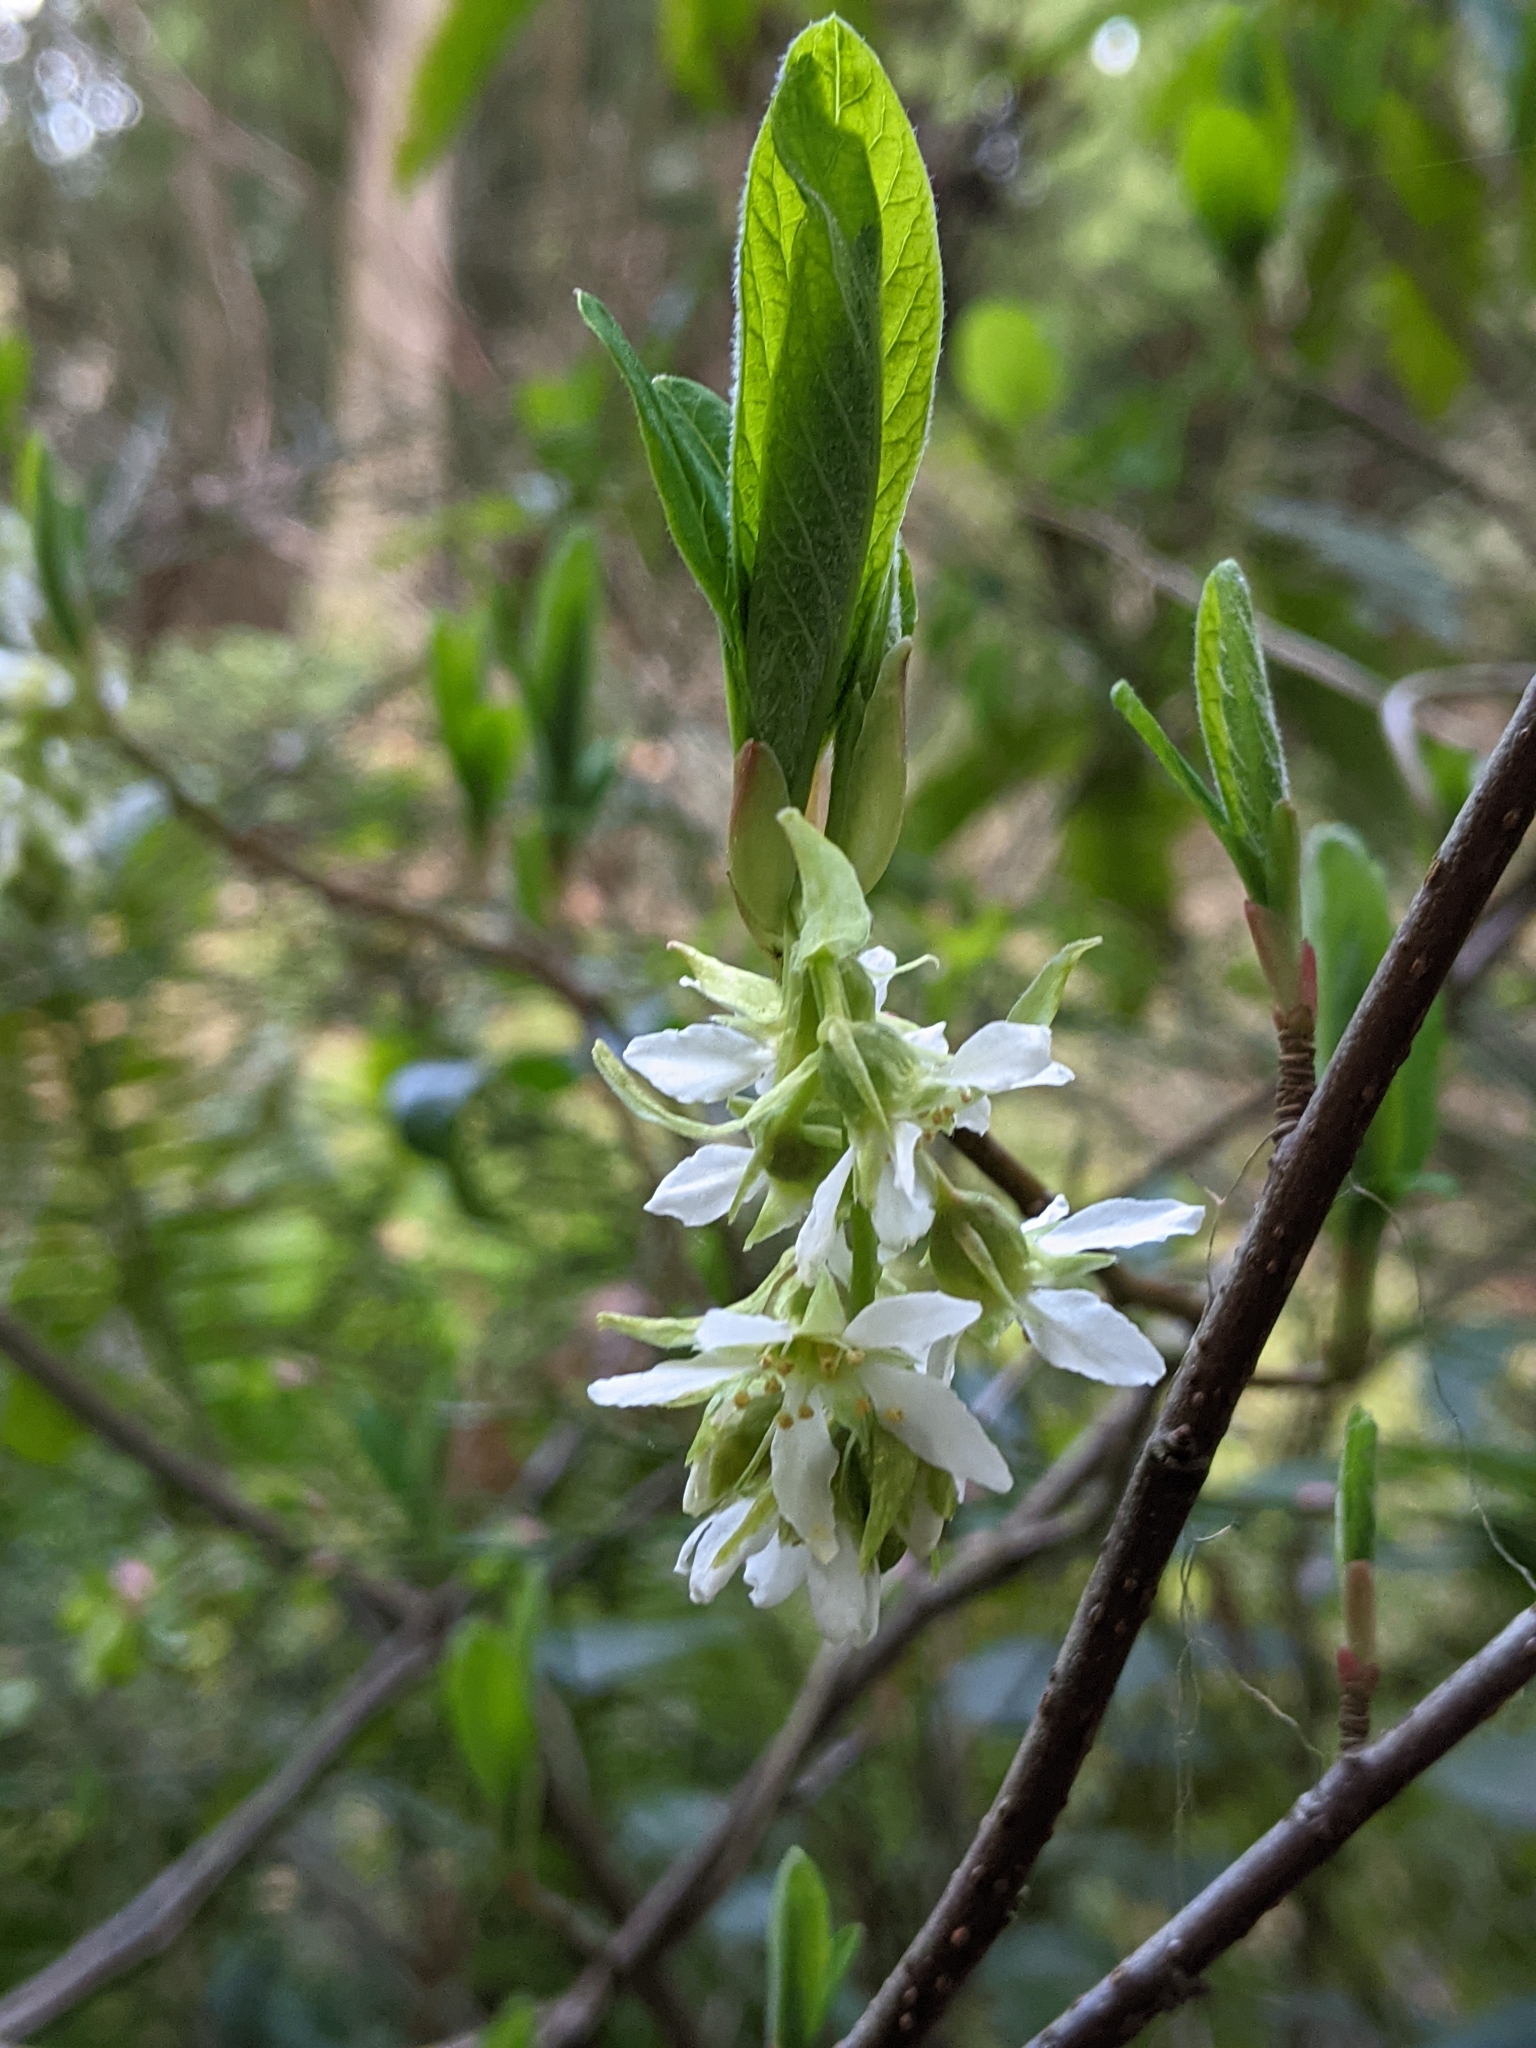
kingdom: Plantae
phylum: Tracheophyta
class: Magnoliopsida
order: Rosales
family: Rosaceae
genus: Oemleria
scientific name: Oemleria cerasiformis
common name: Osoberry
